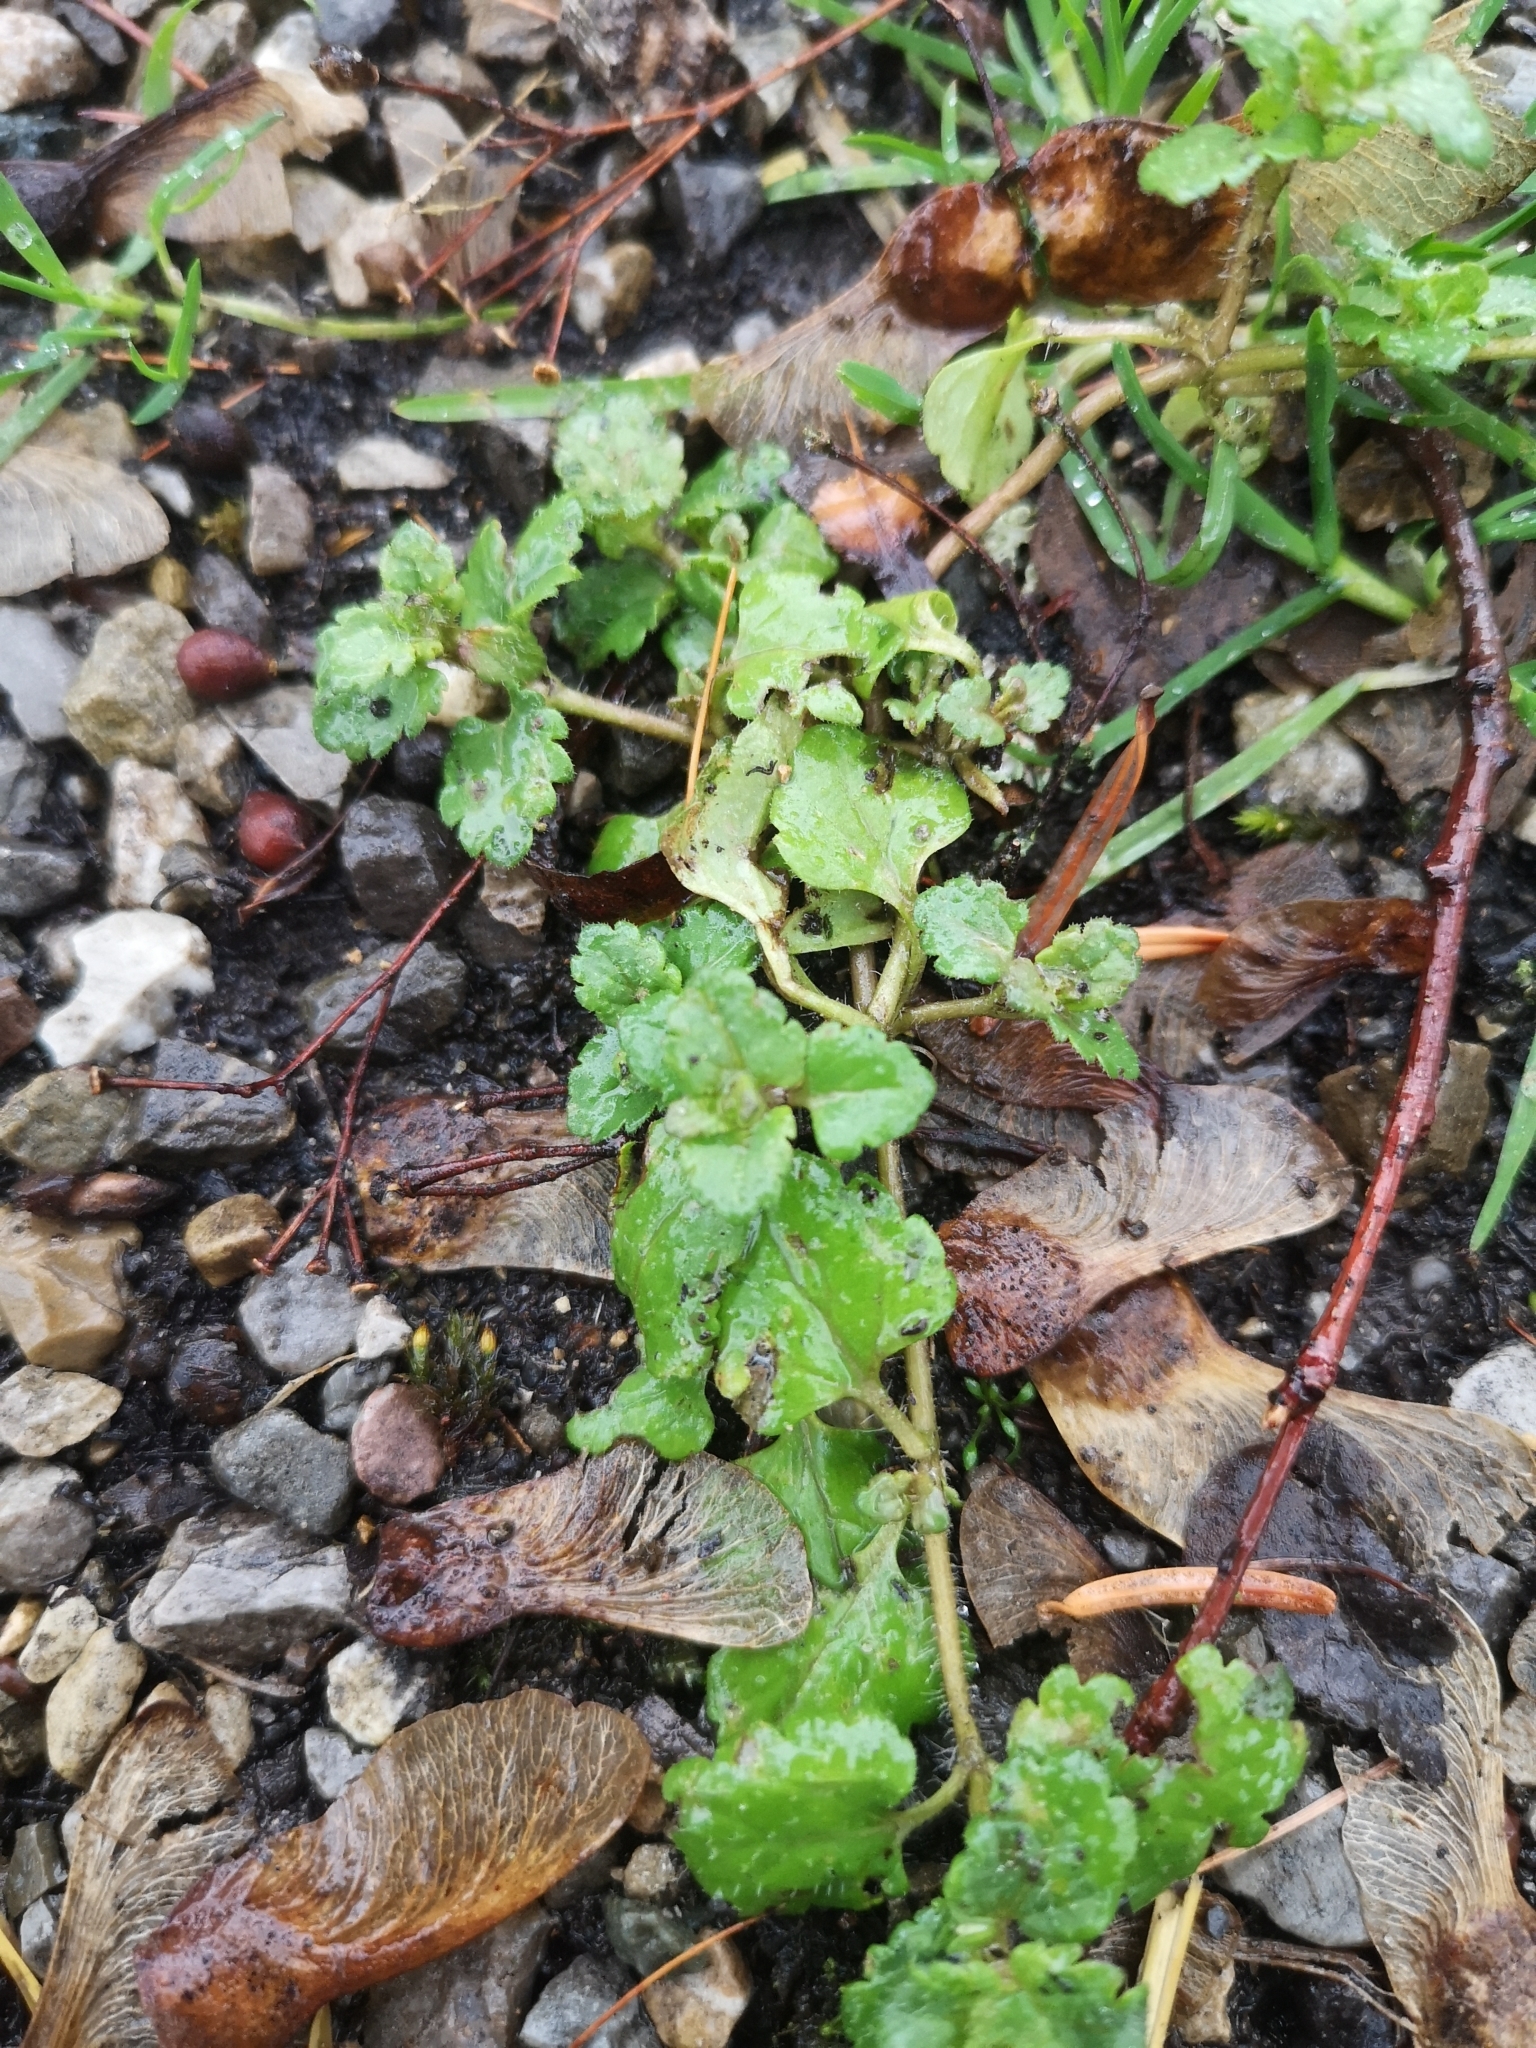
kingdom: Plantae
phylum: Tracheophyta
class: Magnoliopsida
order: Lamiales
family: Lamiaceae
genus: Glechoma
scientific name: Glechoma hederacea
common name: Ground ivy
